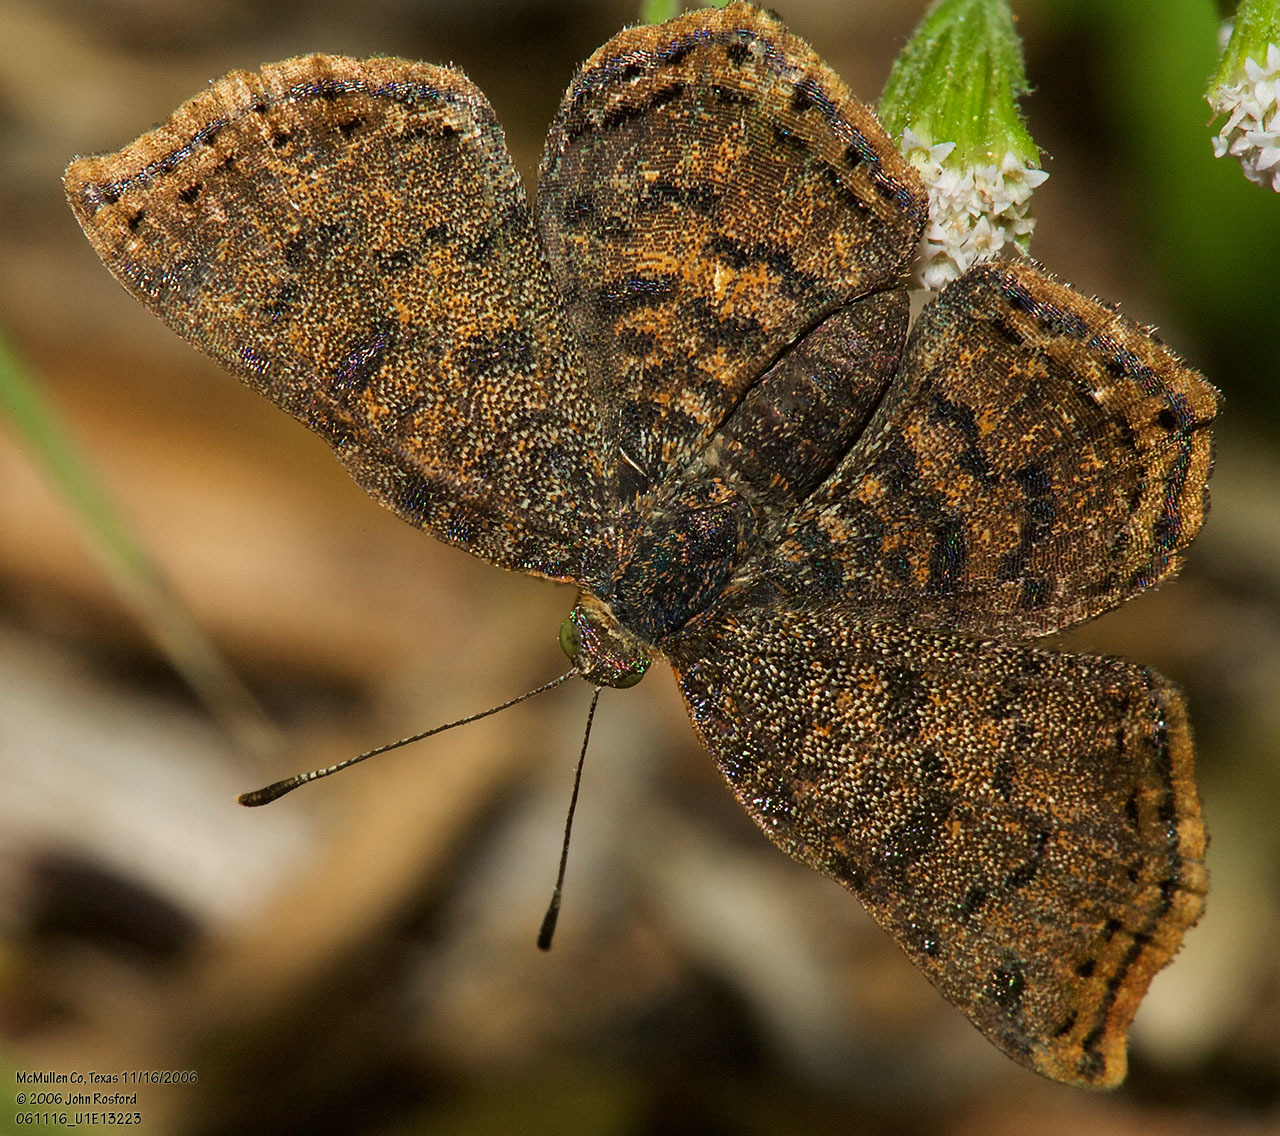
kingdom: Animalia
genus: Caria
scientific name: Caria ino
